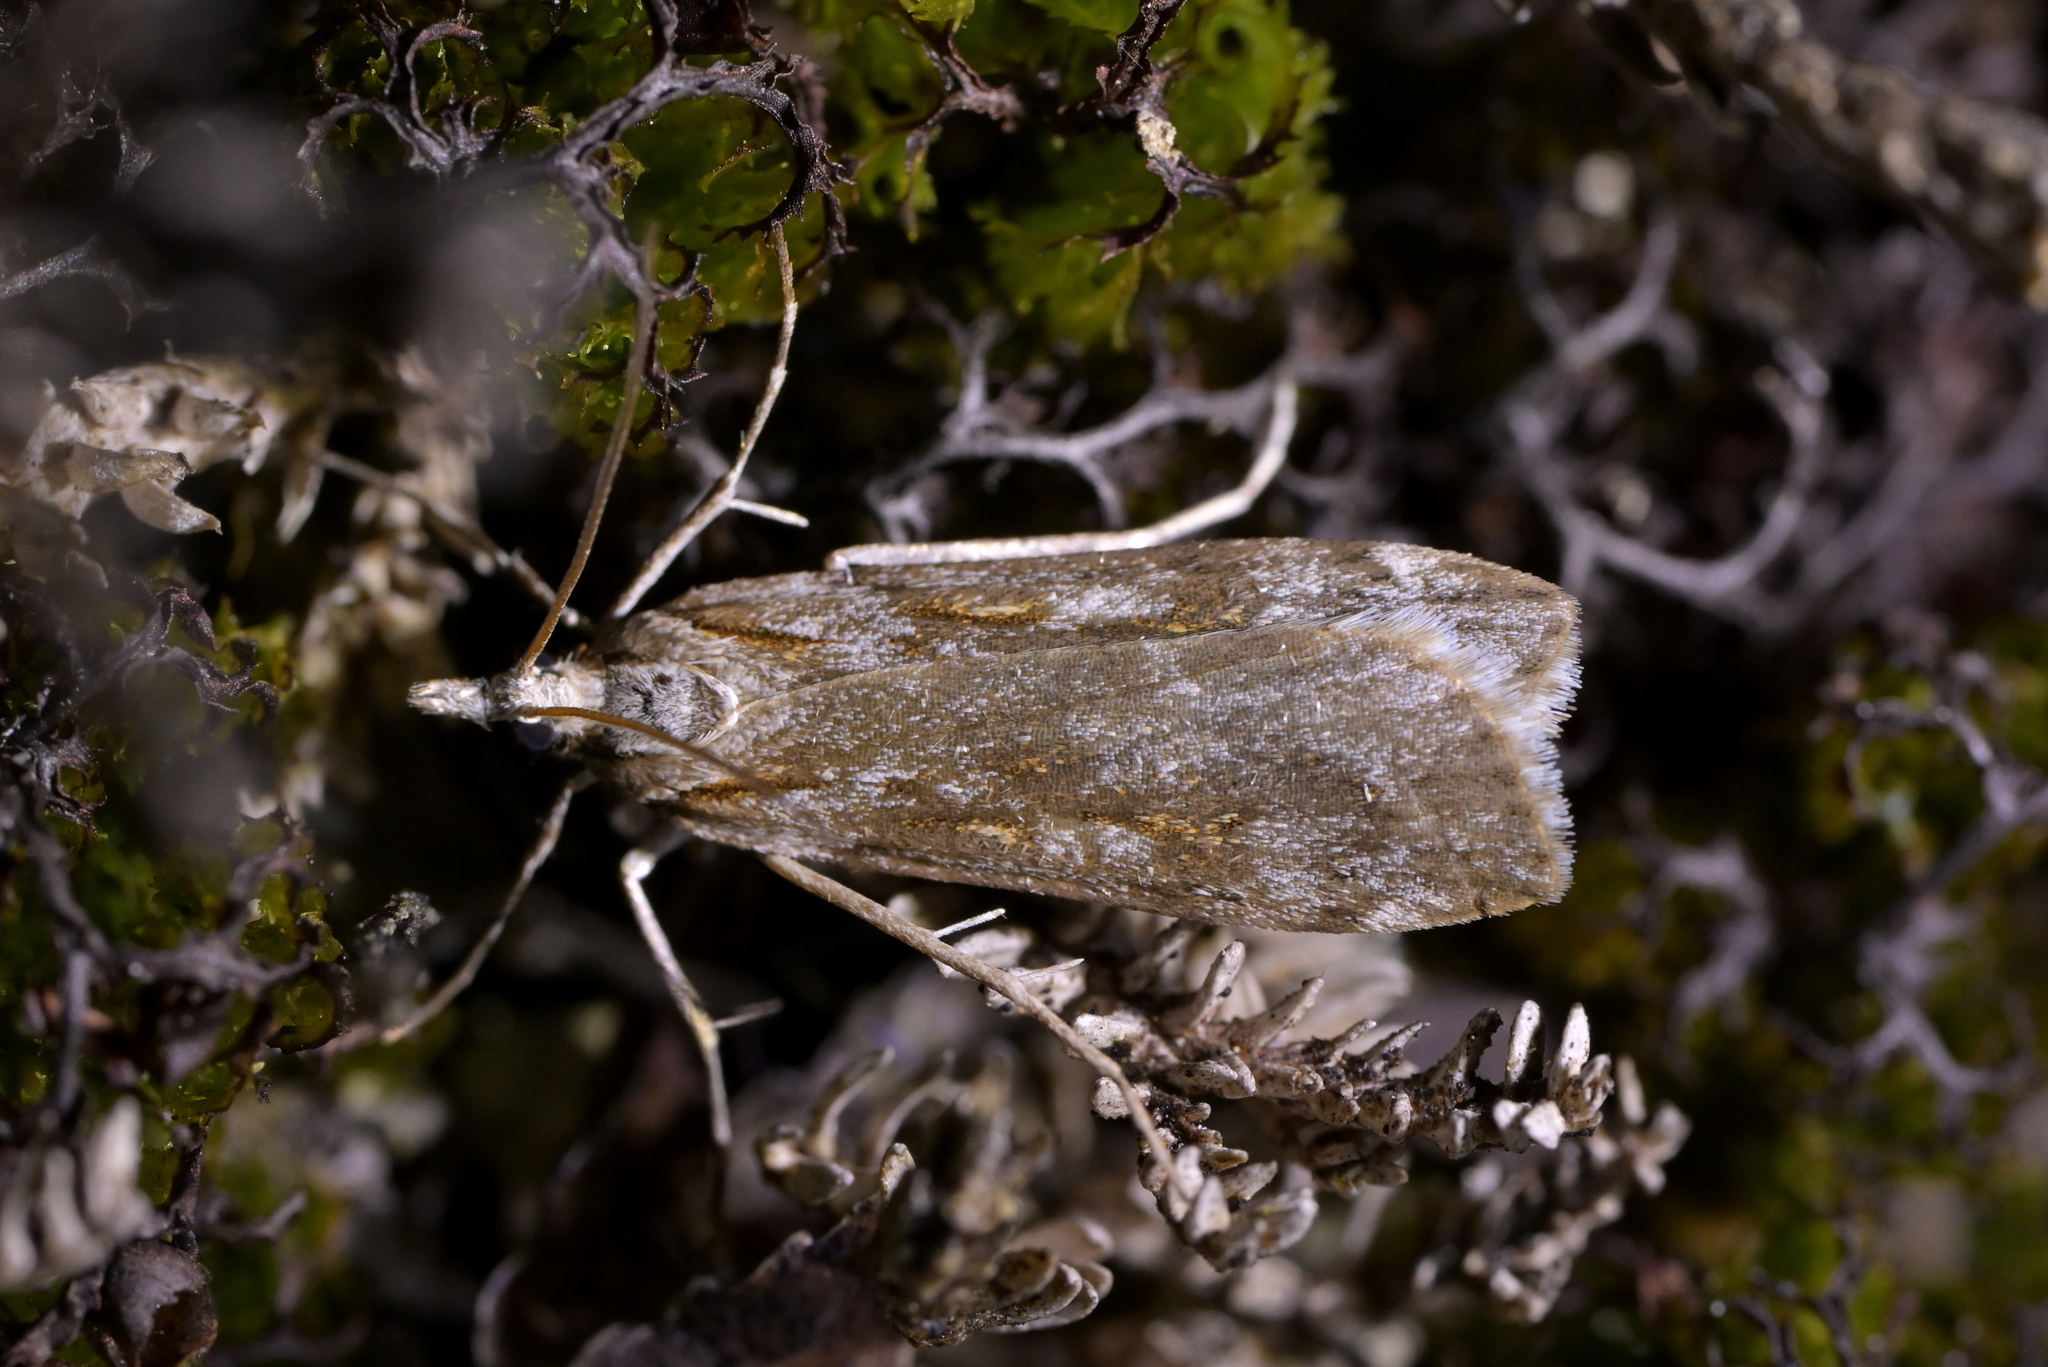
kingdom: Animalia
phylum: Arthropoda
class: Insecta
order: Lepidoptera
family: Crambidae
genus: Scoparia
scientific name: Scoparia petrina
